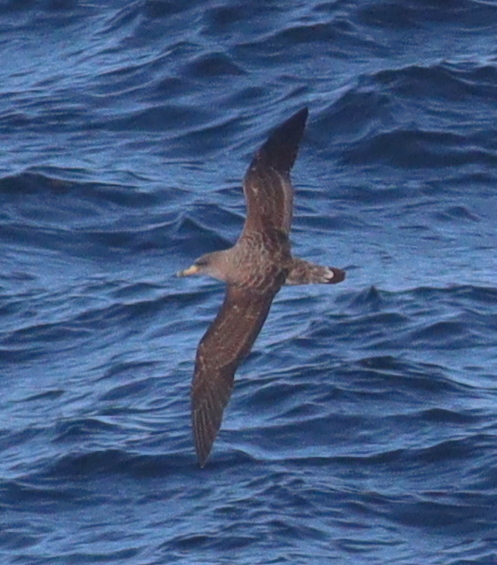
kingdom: Animalia
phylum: Chordata
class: Aves
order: Procellariiformes
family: Procellariidae
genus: Calonectris
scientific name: Calonectris diomedea
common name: Cory's shearwater
